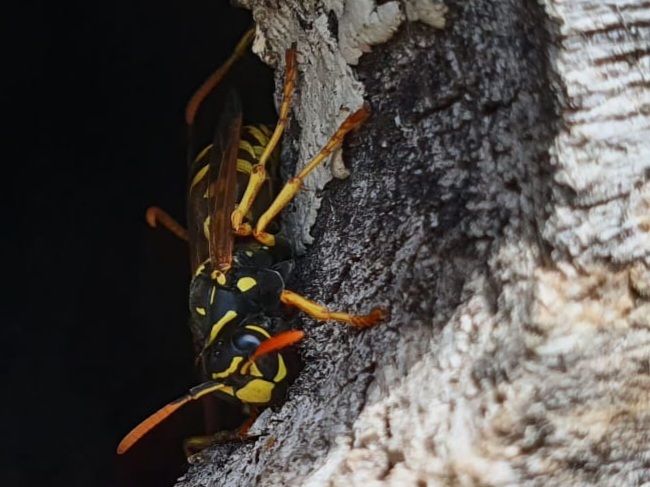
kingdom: Animalia
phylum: Arthropoda
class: Insecta
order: Hymenoptera
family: Eumenidae
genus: Polistes
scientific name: Polistes dominula
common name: Paper wasp
